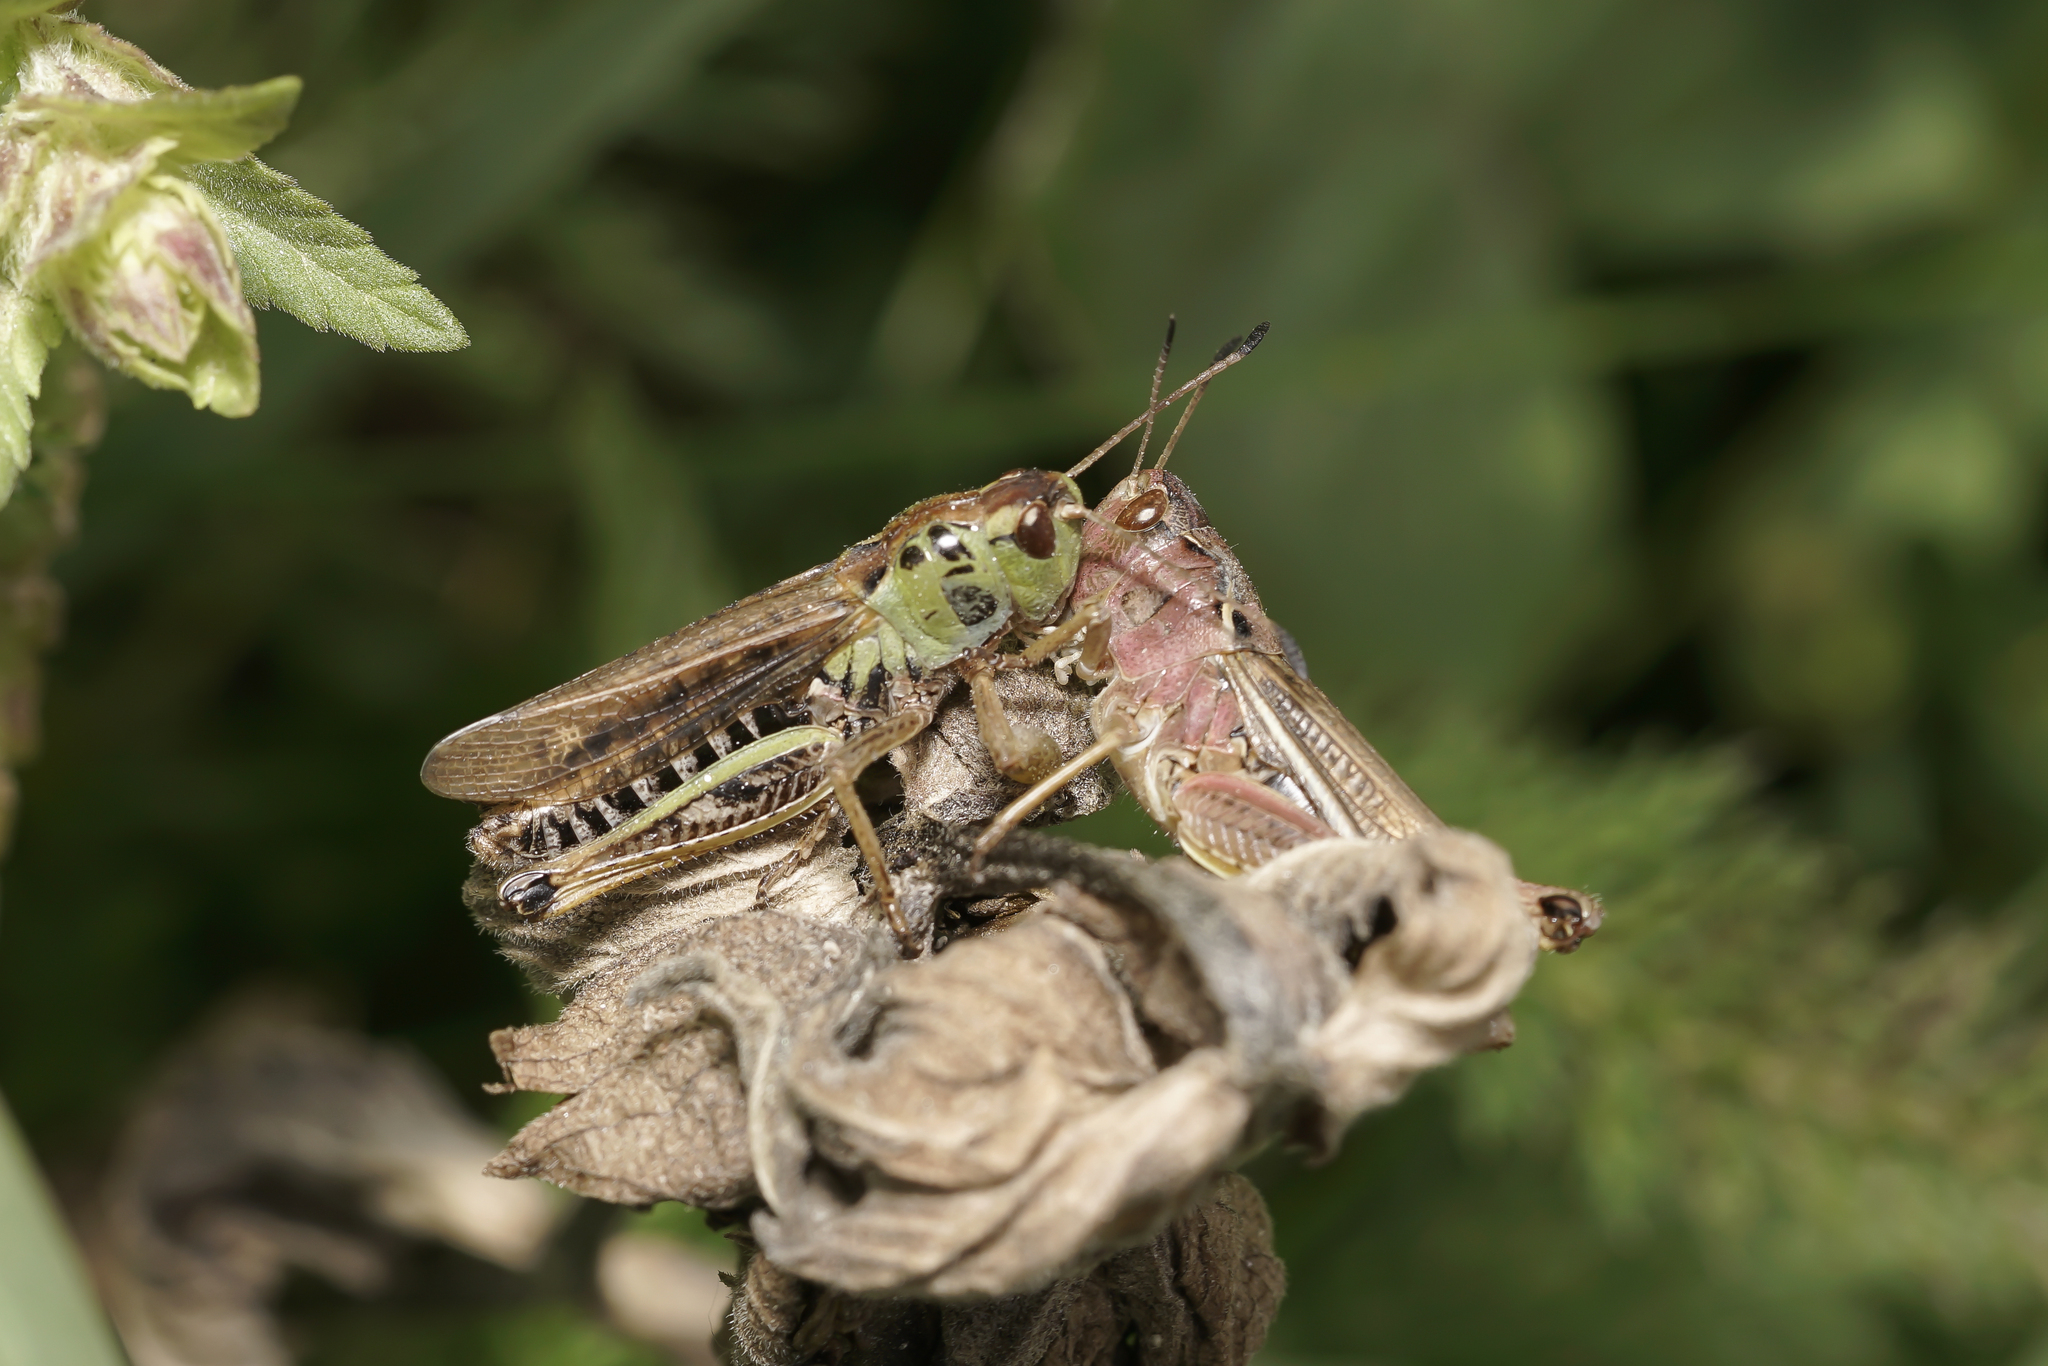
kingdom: Animalia
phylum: Arthropoda
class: Insecta
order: Orthoptera
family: Acrididae
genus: Gomphocerus
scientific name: Gomphocerus sibiricus
